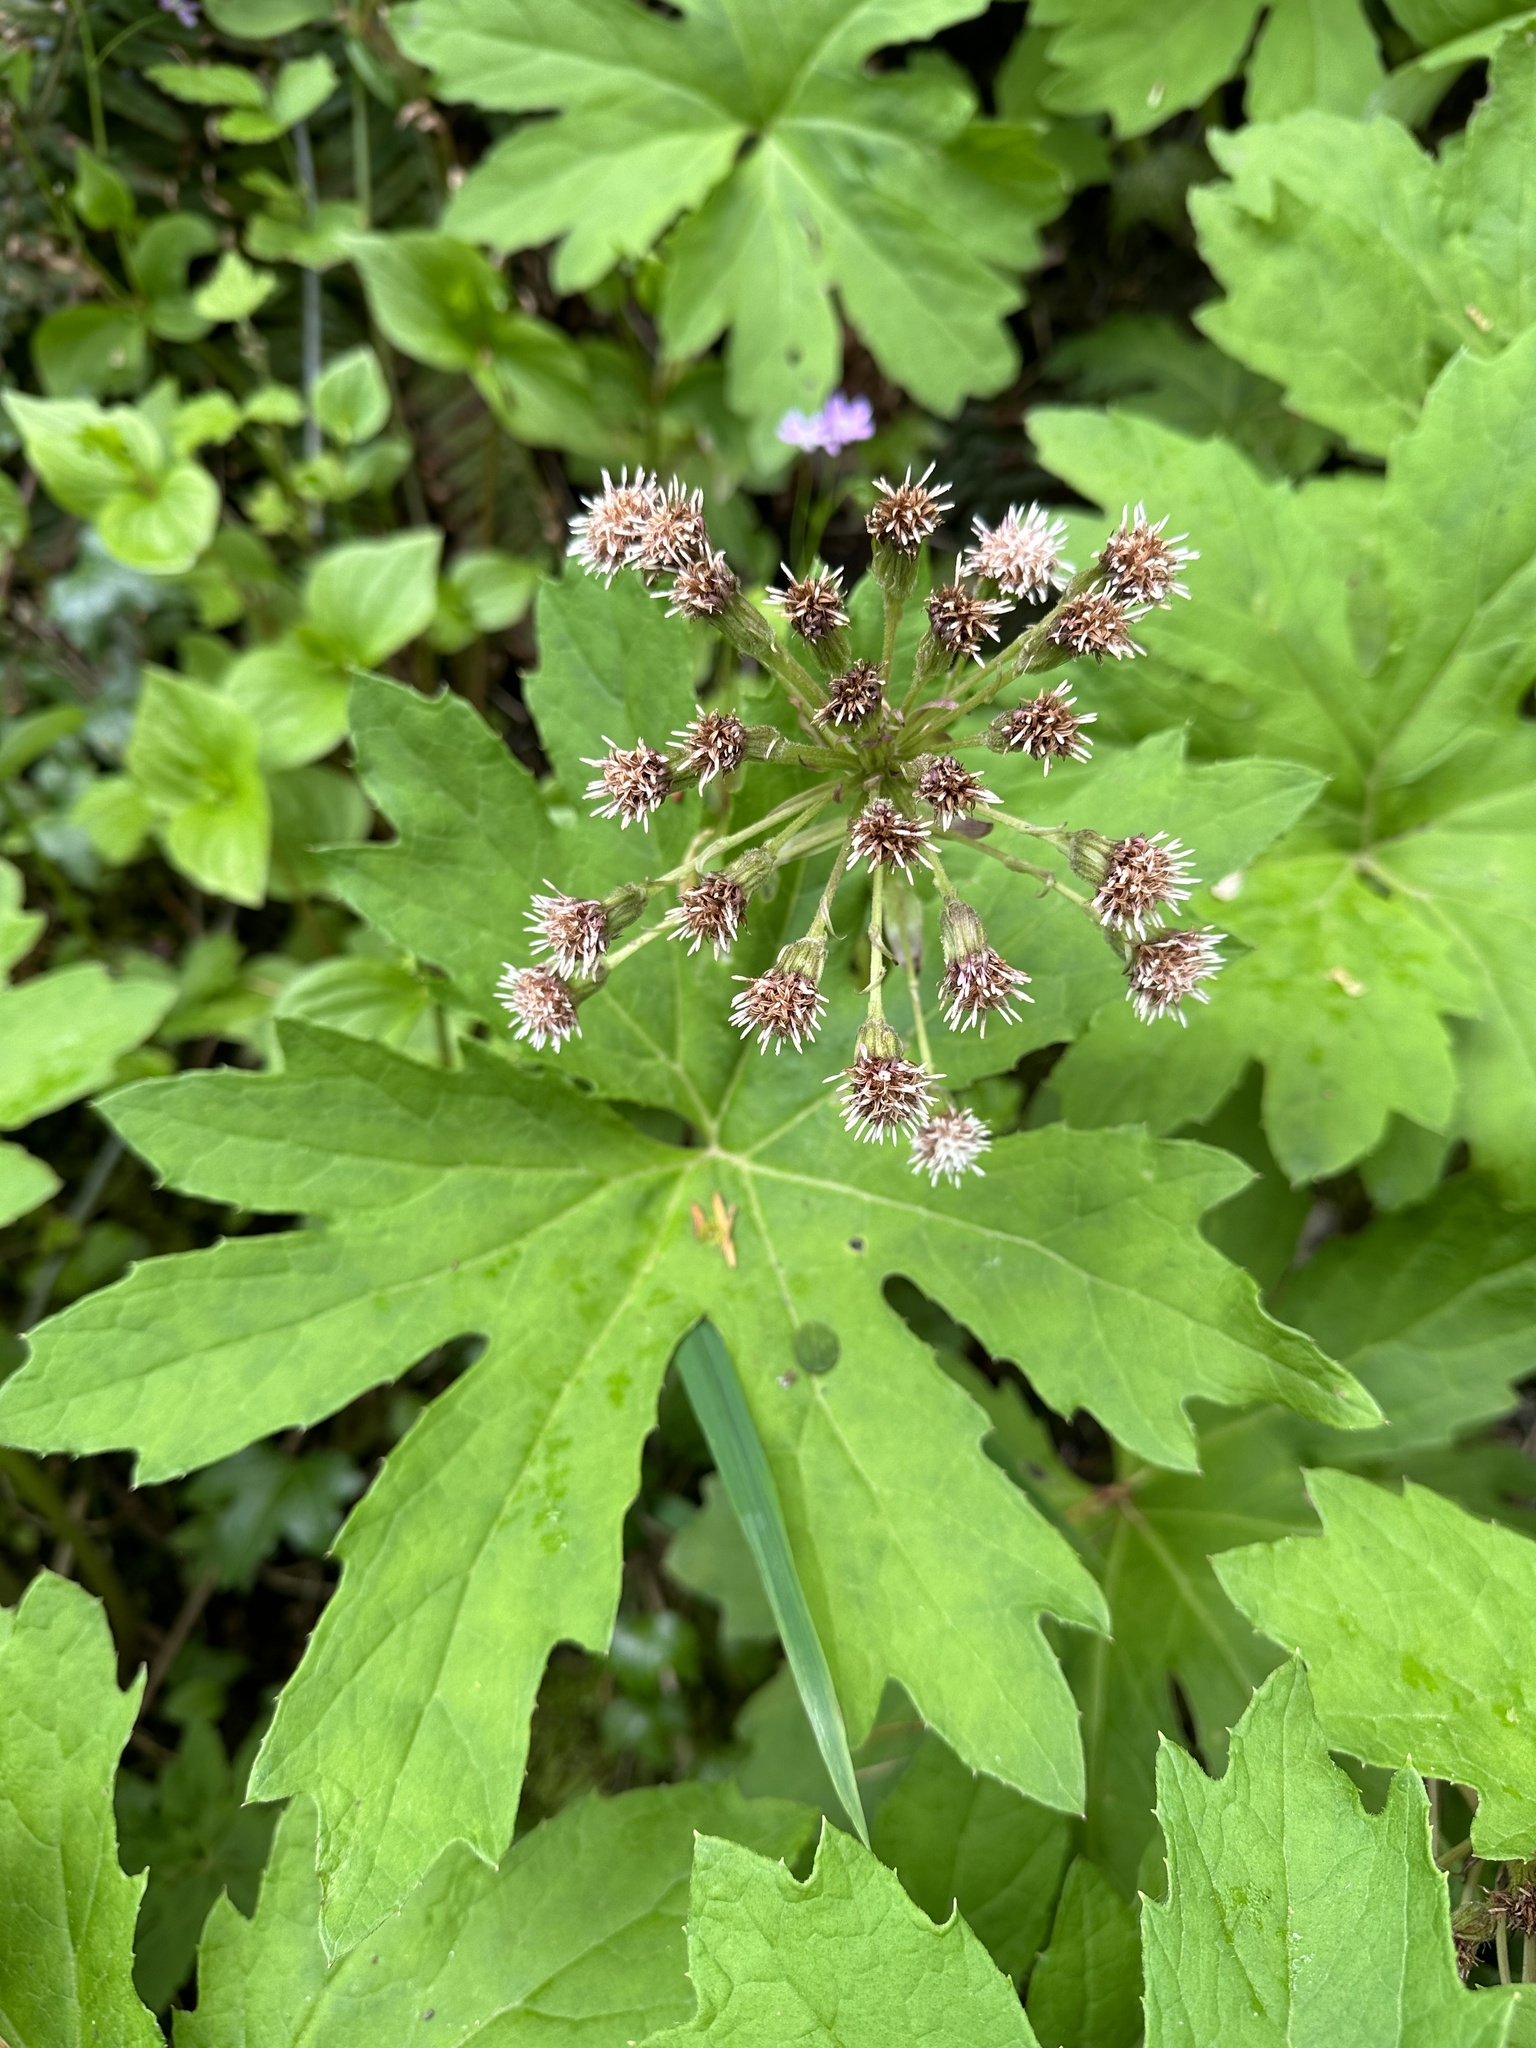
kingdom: Plantae
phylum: Tracheophyta
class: Magnoliopsida
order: Asterales
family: Asteraceae
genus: Petasites
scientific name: Petasites frigidus
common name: Arctic butterbur
